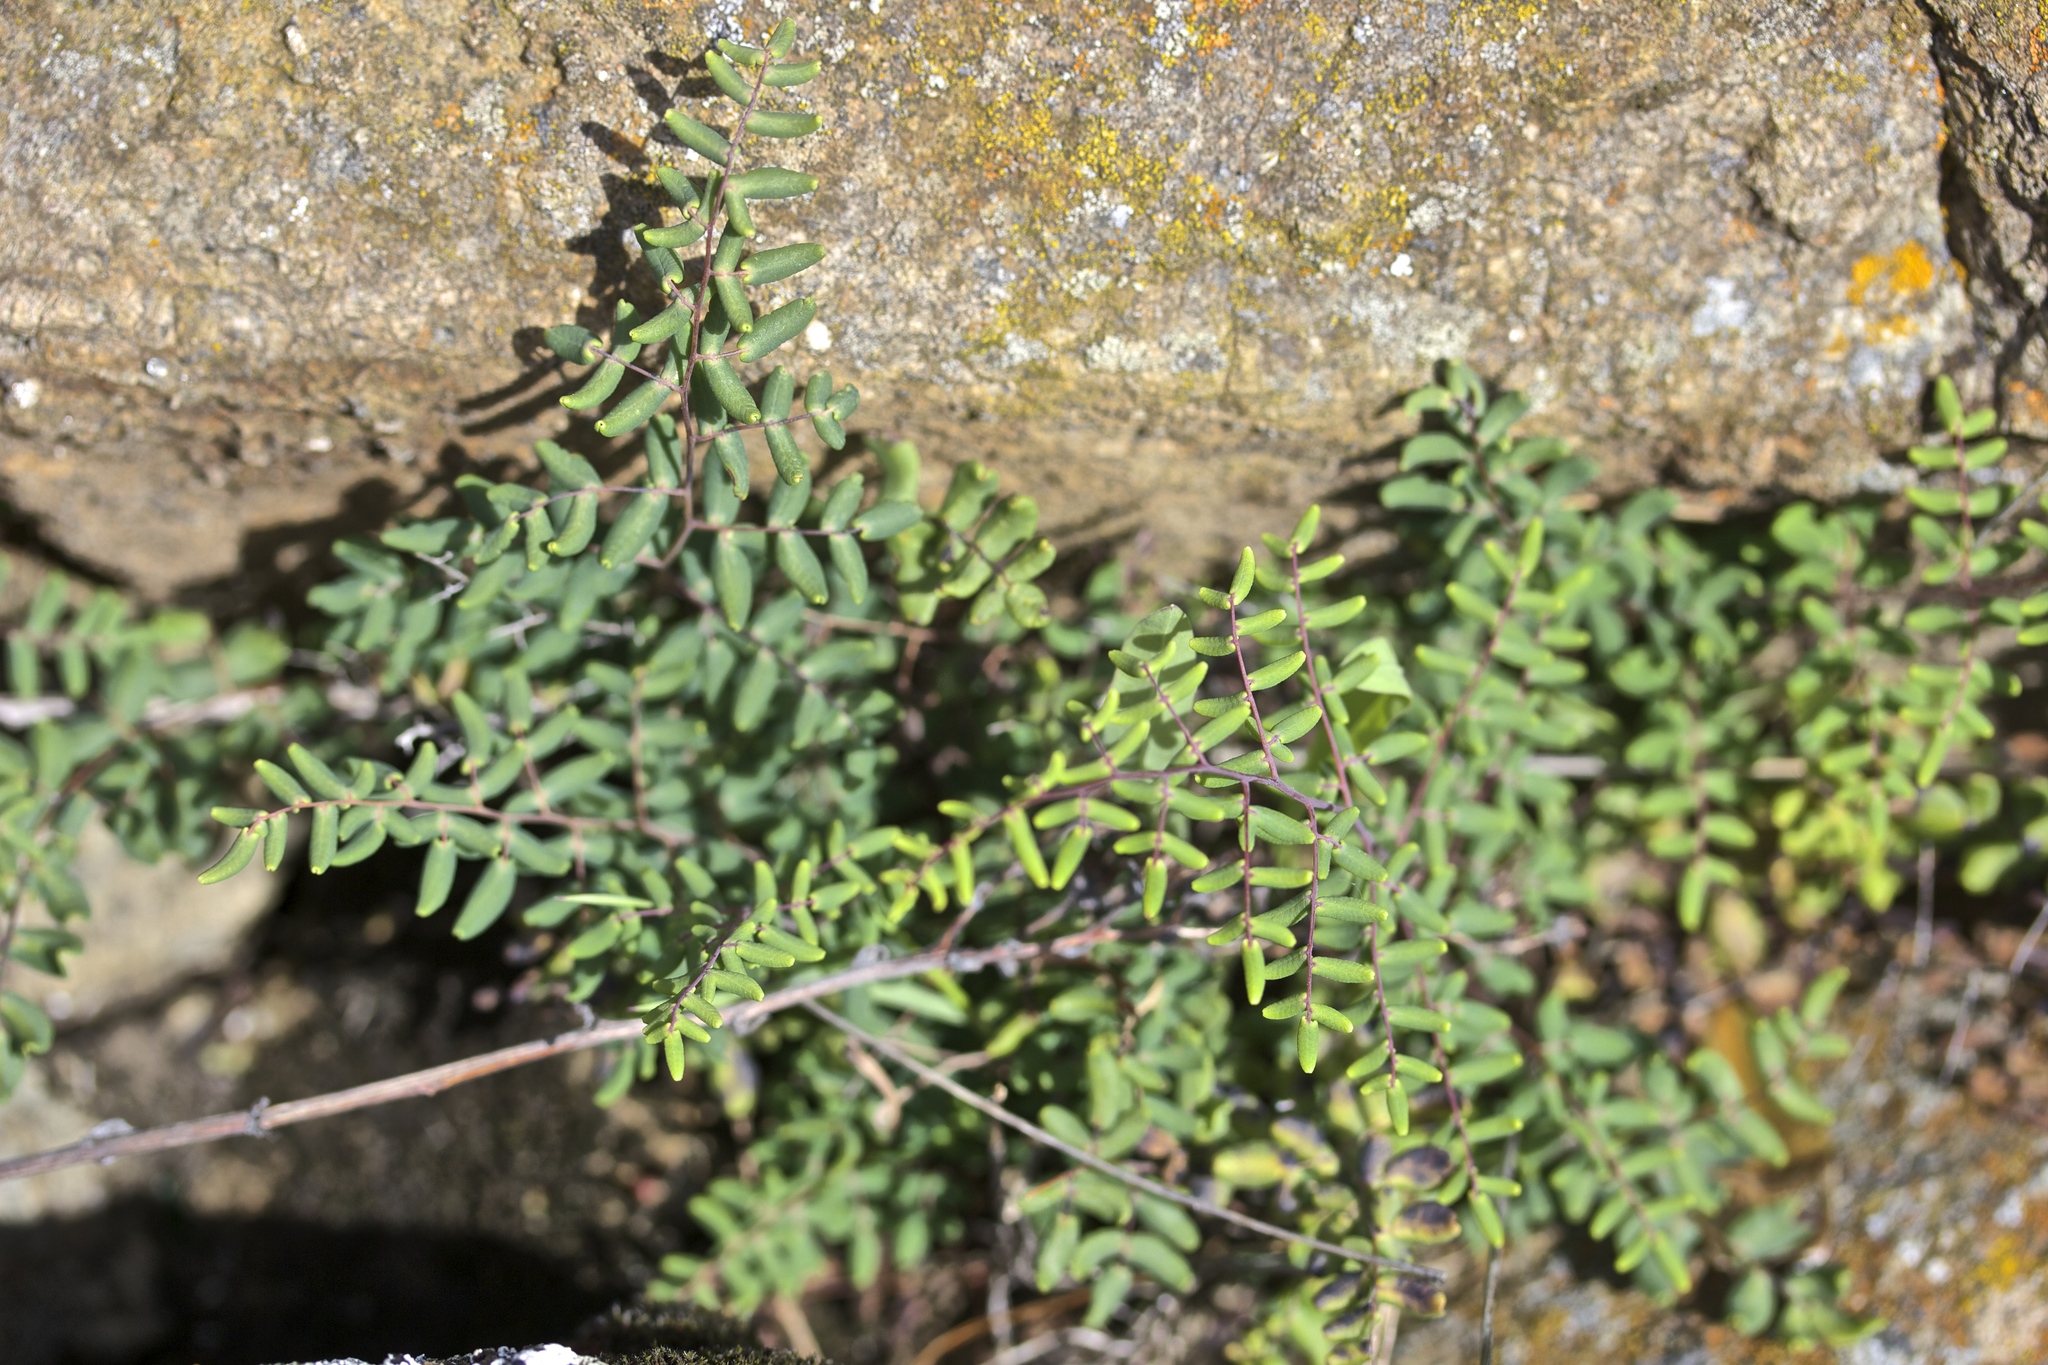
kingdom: Plantae
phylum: Tracheophyta
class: Polypodiopsida
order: Polypodiales
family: Pteridaceae
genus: Pellaea
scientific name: Pellaea andromedifolia
